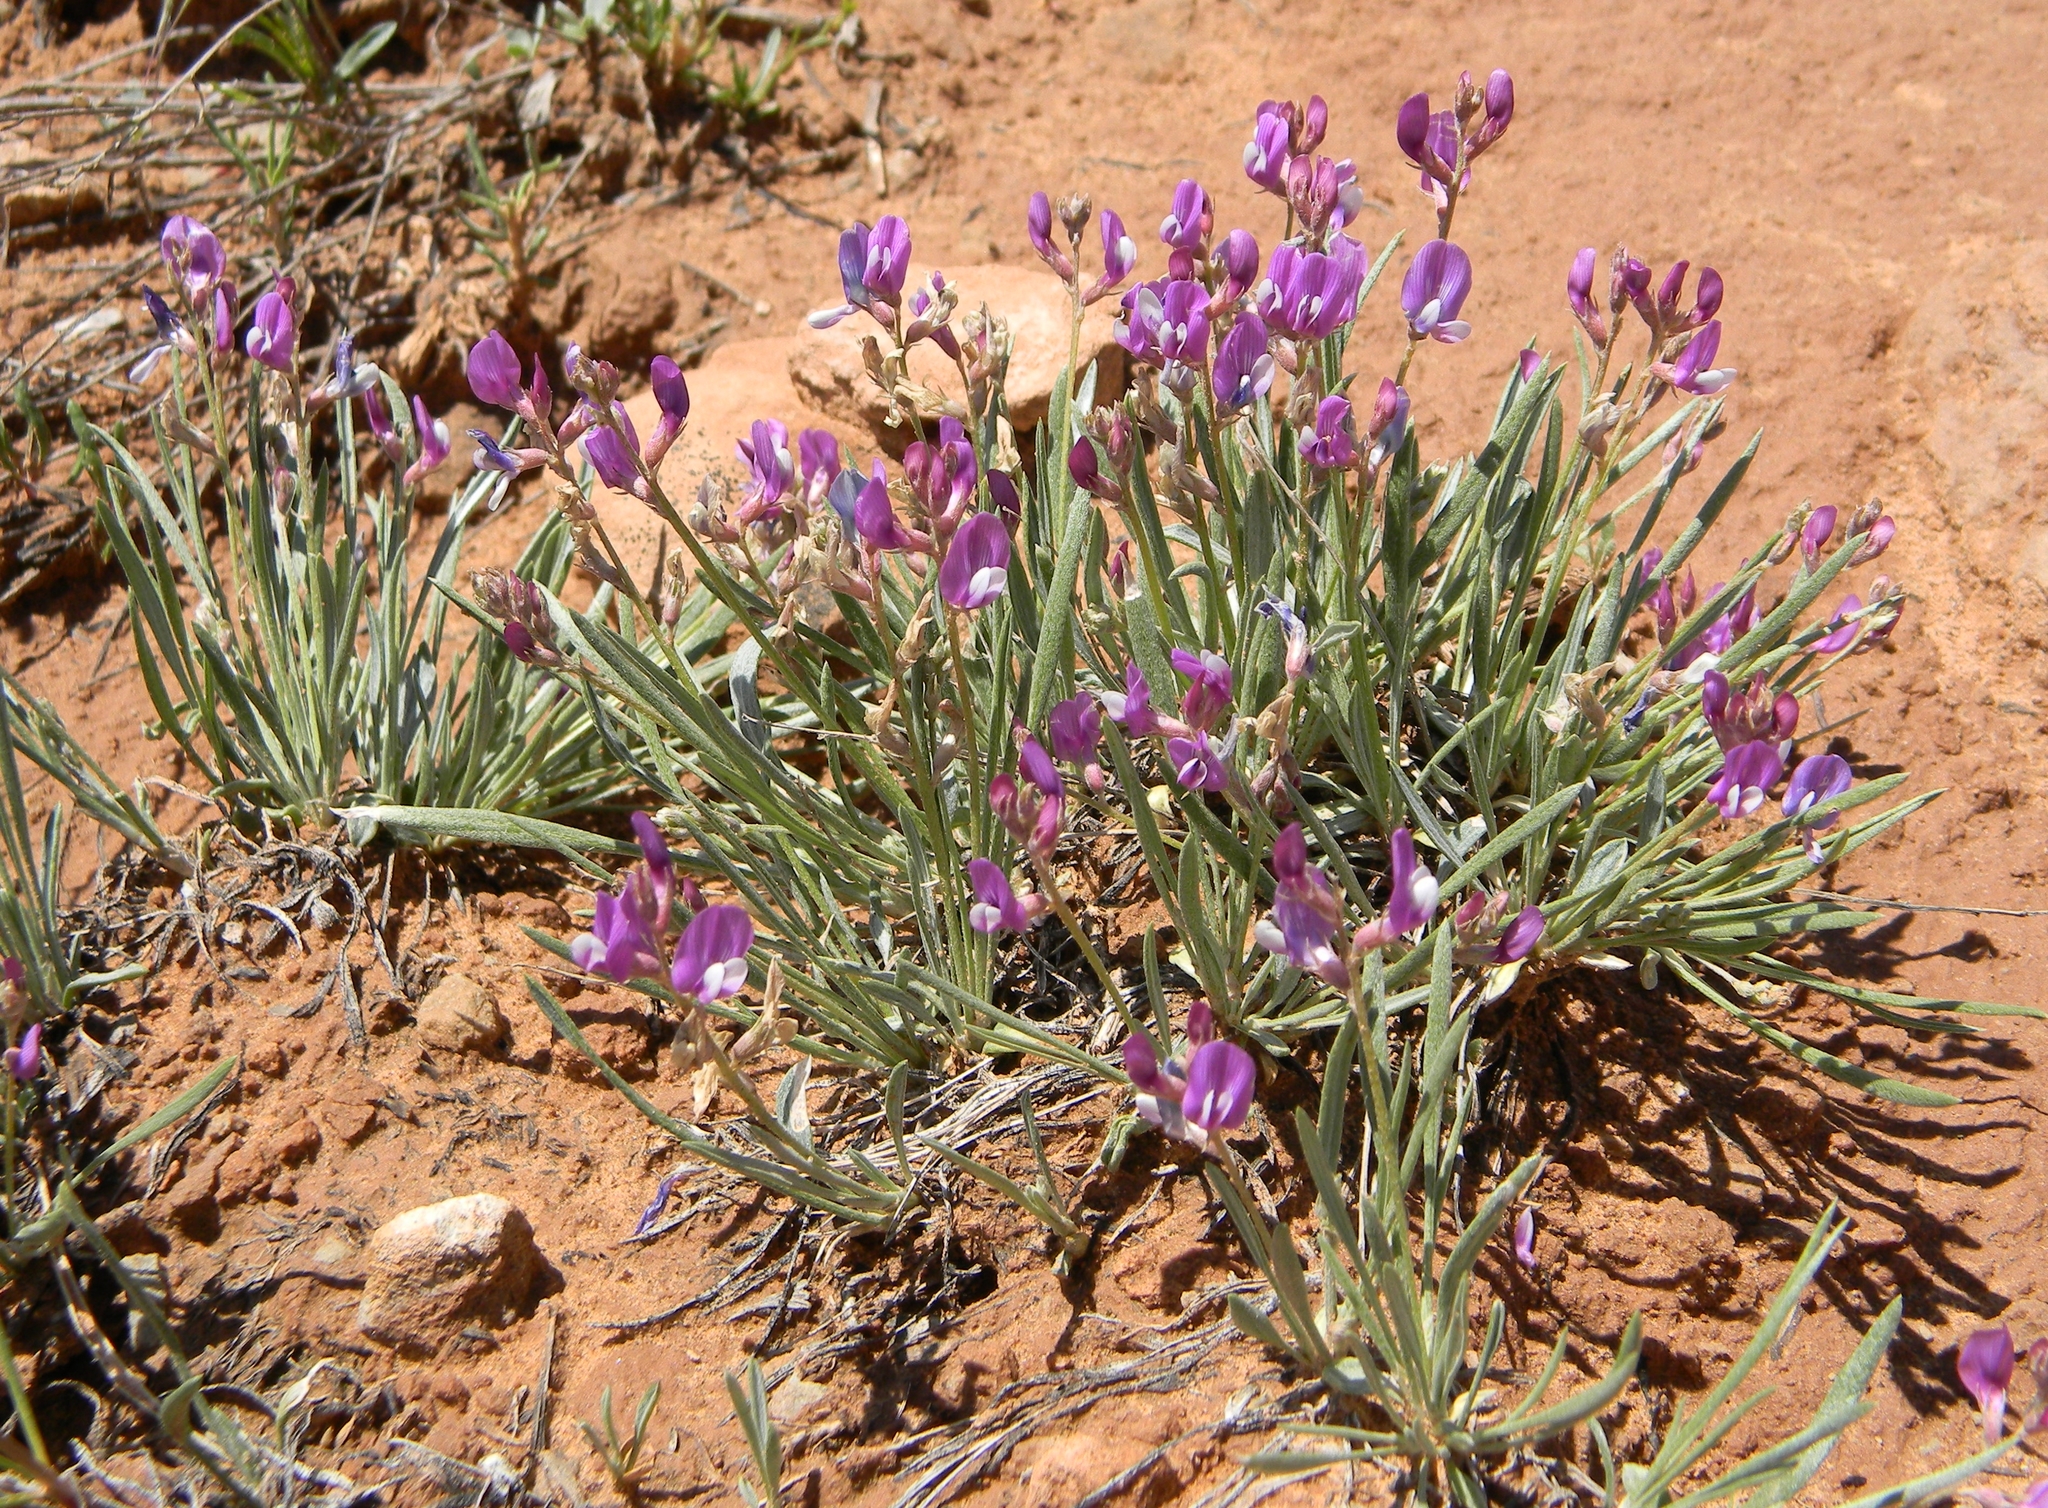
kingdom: Plantae
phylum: Tracheophyta
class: Magnoliopsida
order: Fabales
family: Fabaceae
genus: Astragalus
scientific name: Astragalus spatulatus
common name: Draba milk-vetch
